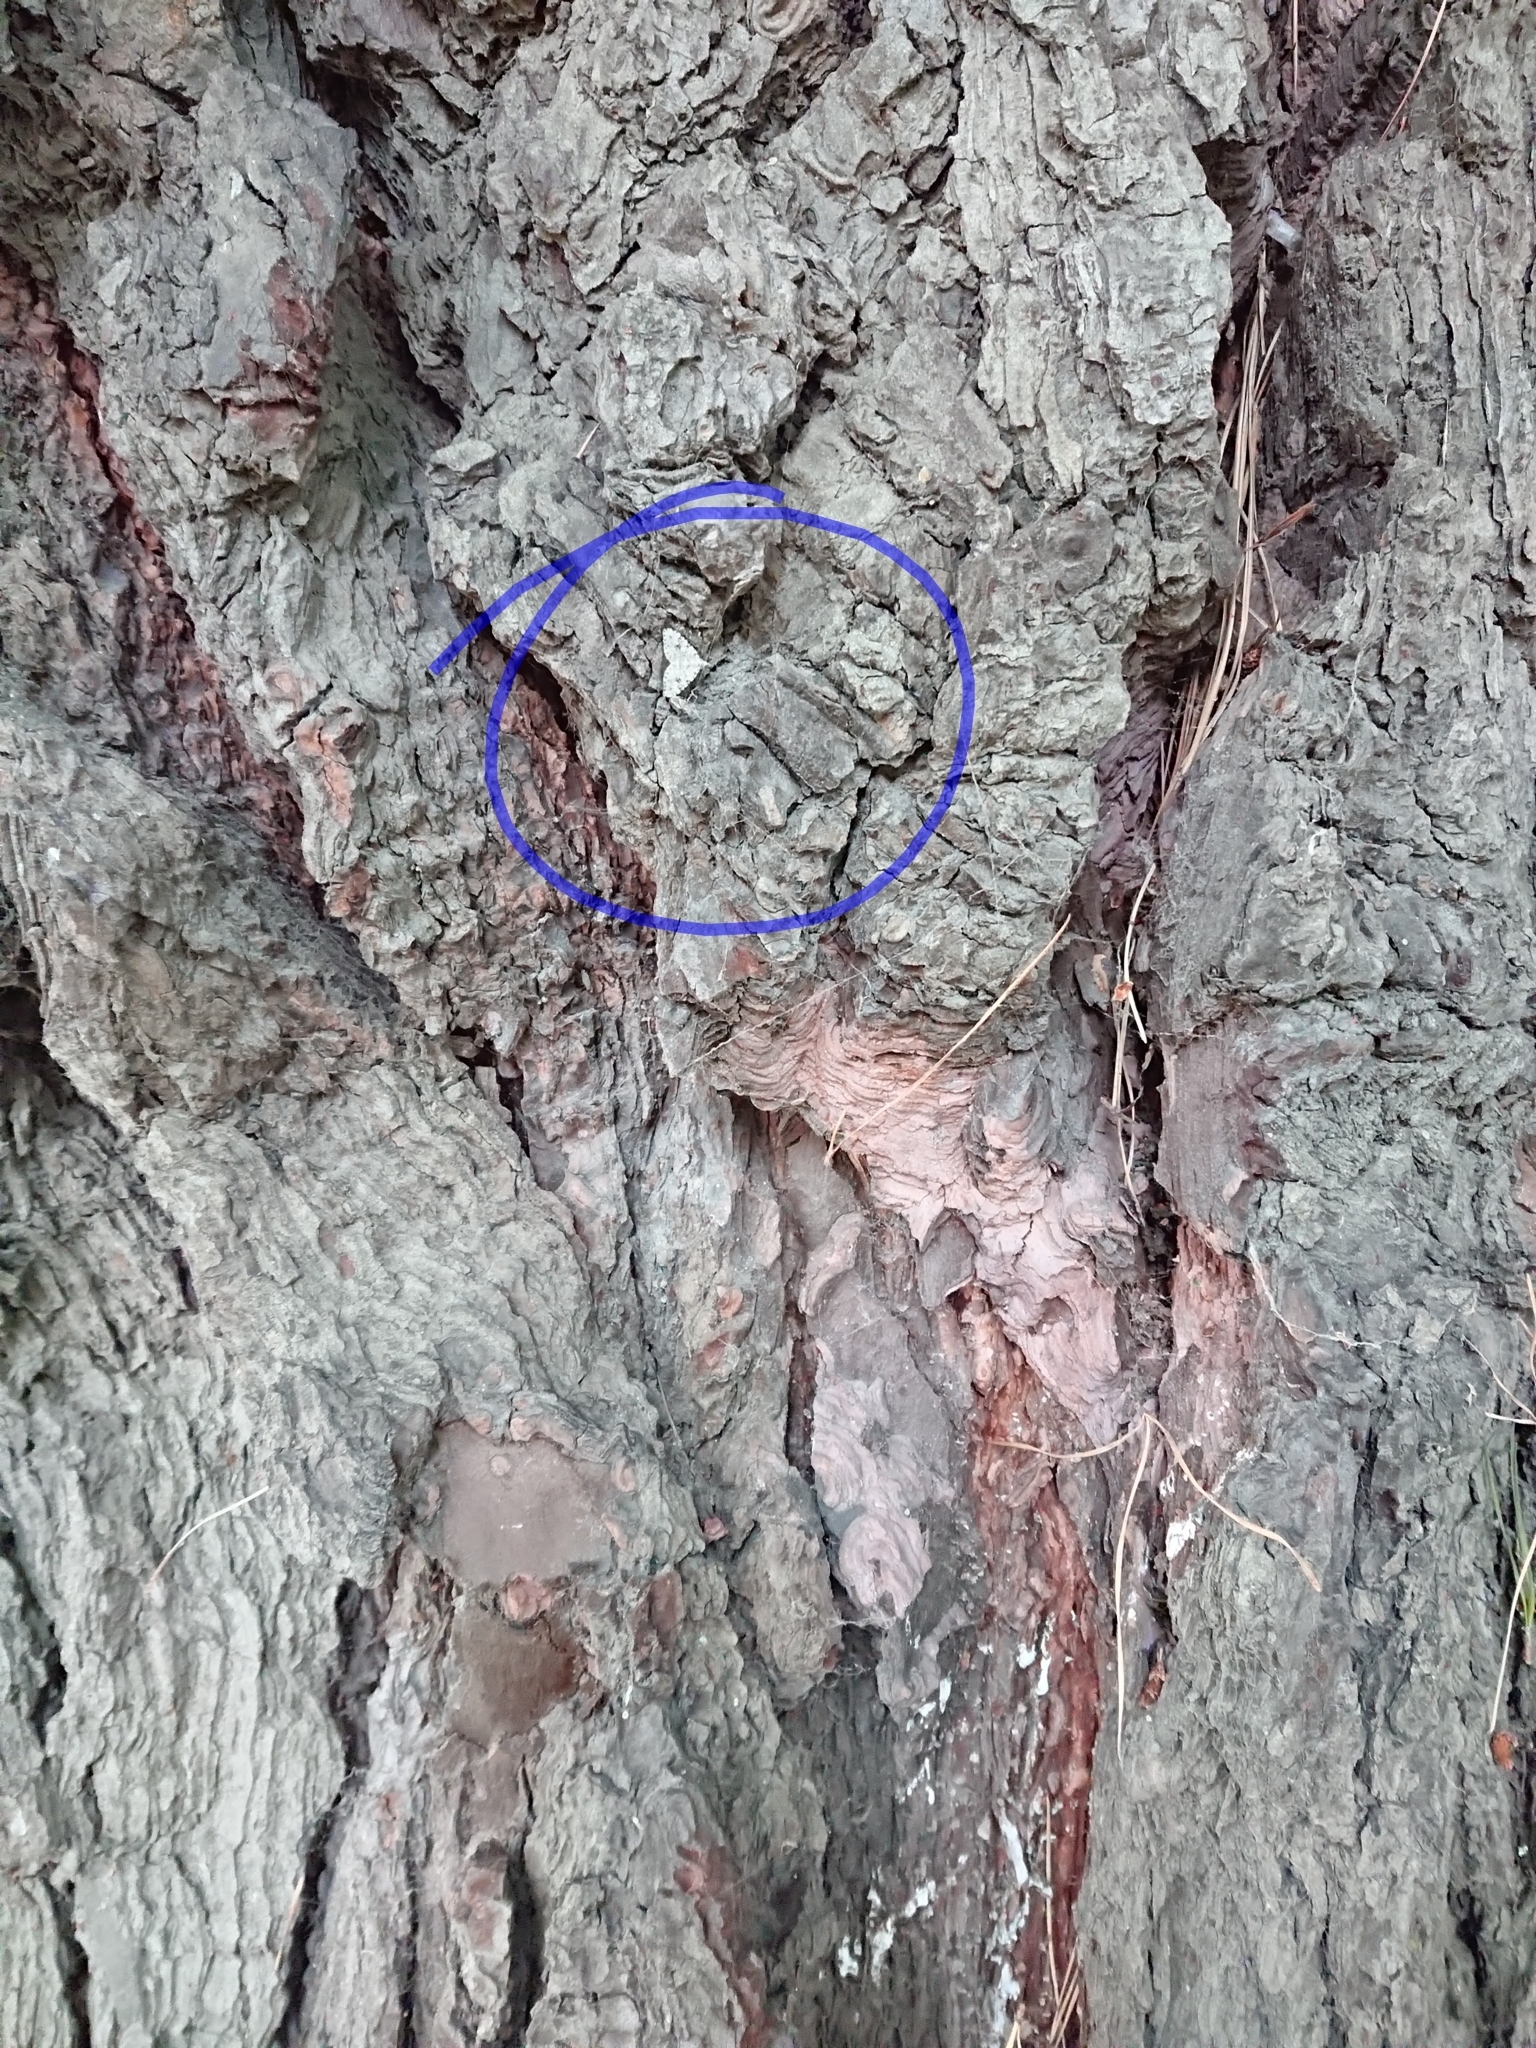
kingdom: Animalia
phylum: Arthropoda
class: Insecta
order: Lepidoptera
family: Geometridae
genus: Helastia
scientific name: Helastia cinerearia
